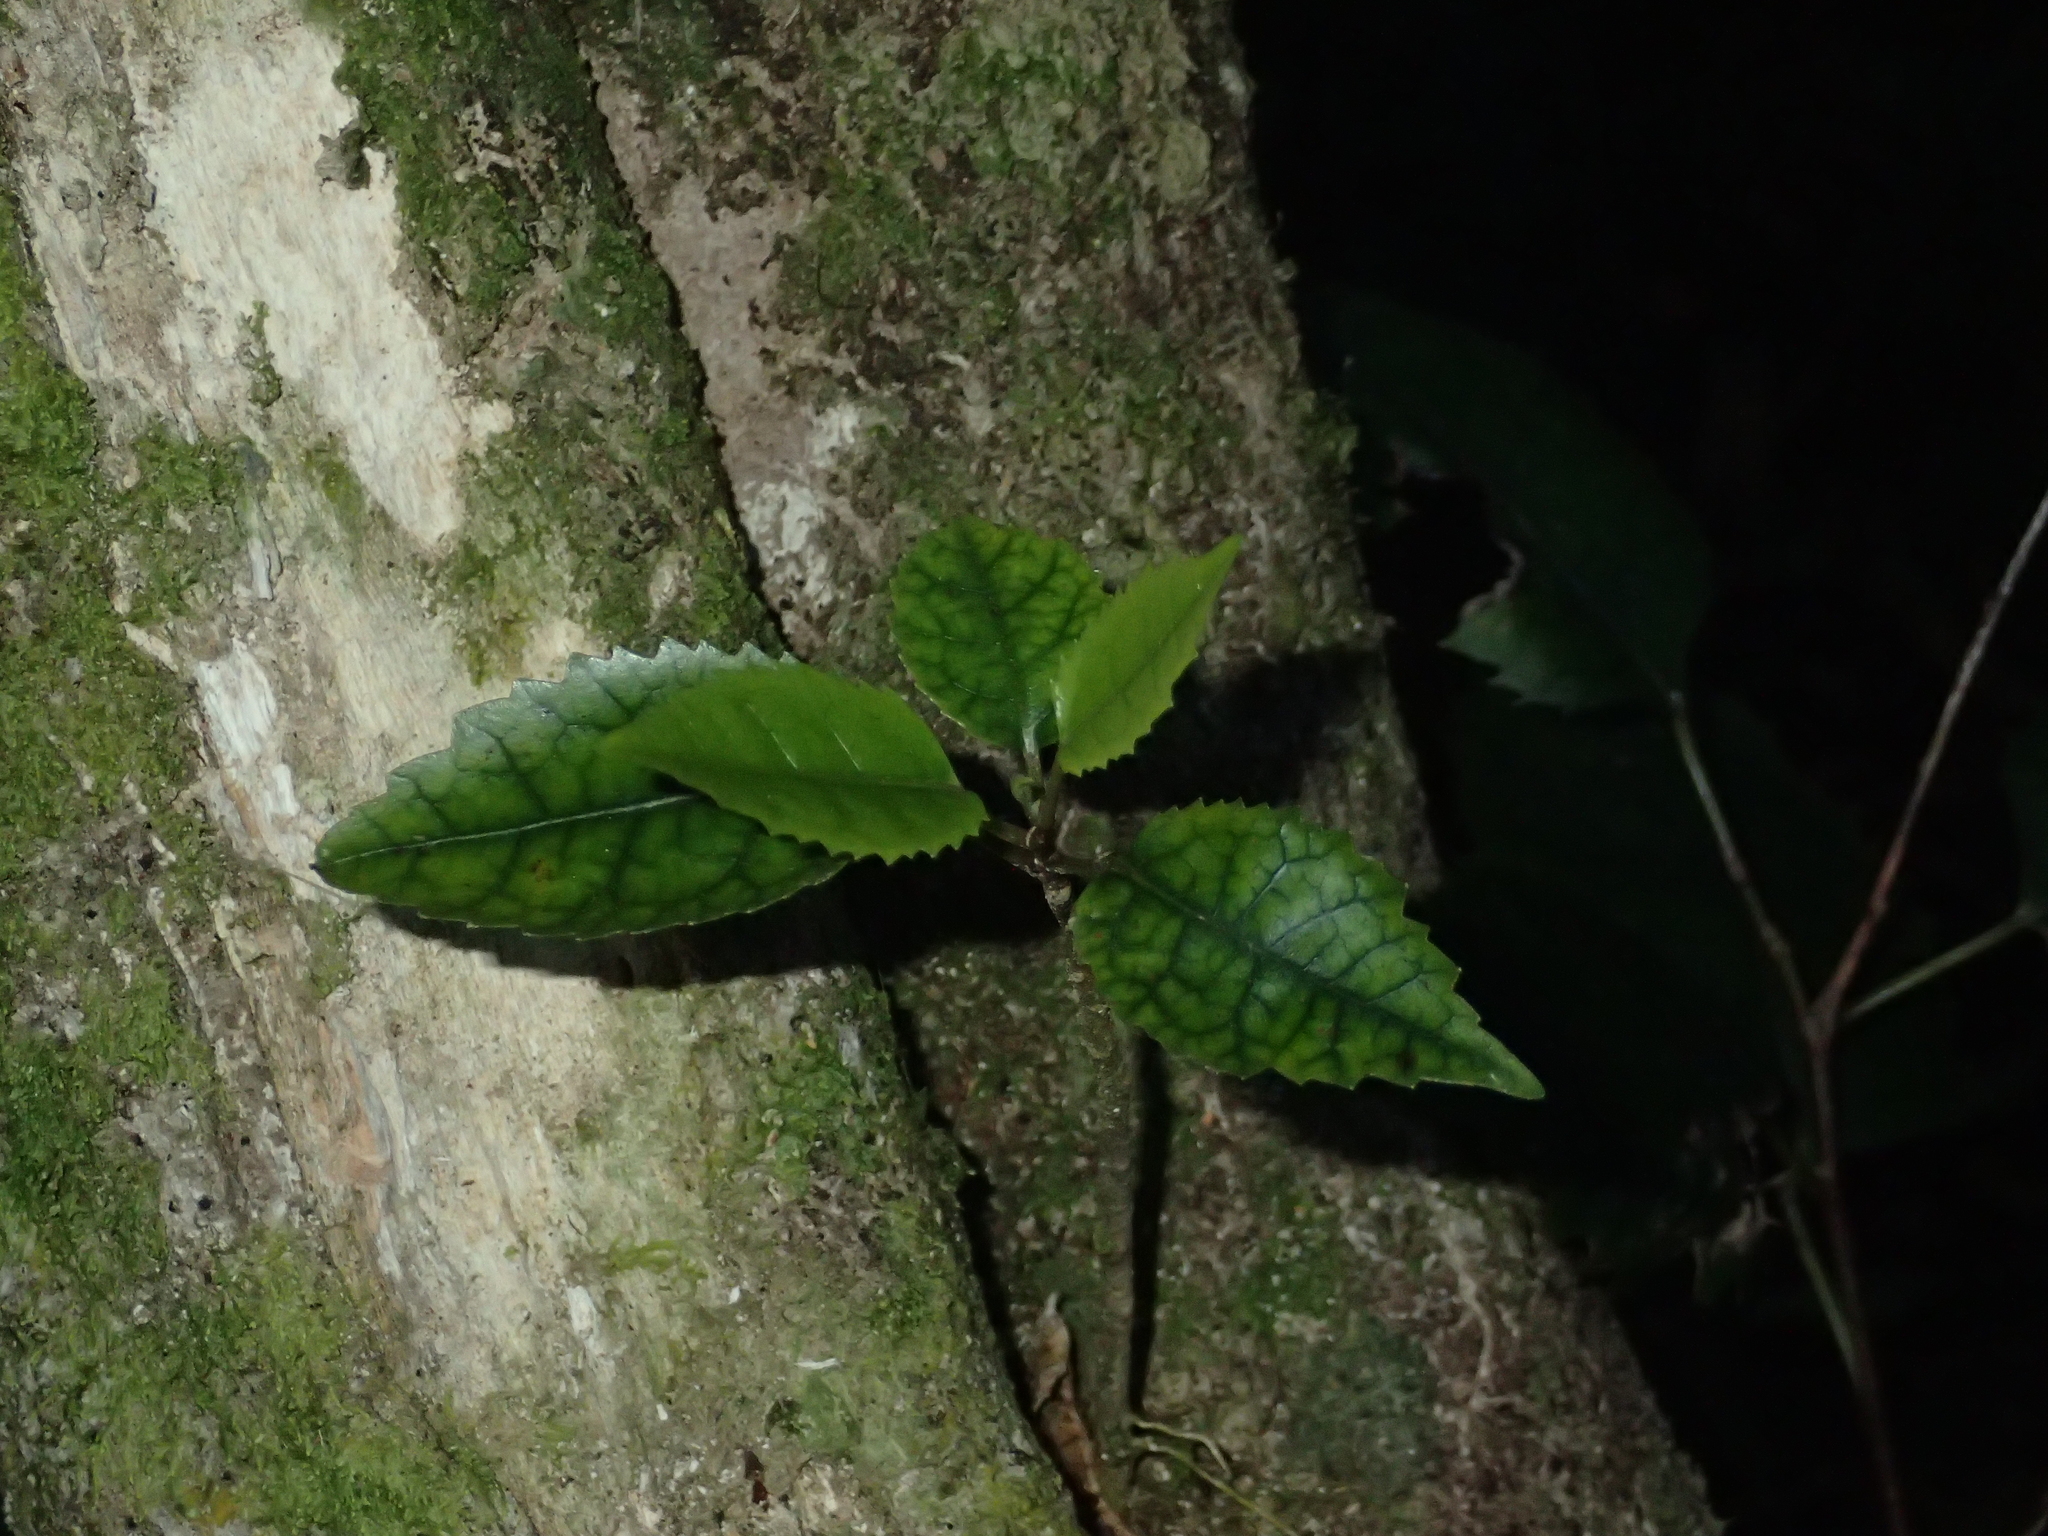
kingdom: Plantae
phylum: Tracheophyta
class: Magnoliopsida
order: Malvales
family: Malvaceae
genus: Hoheria
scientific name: Hoheria populnea
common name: Lacebark
